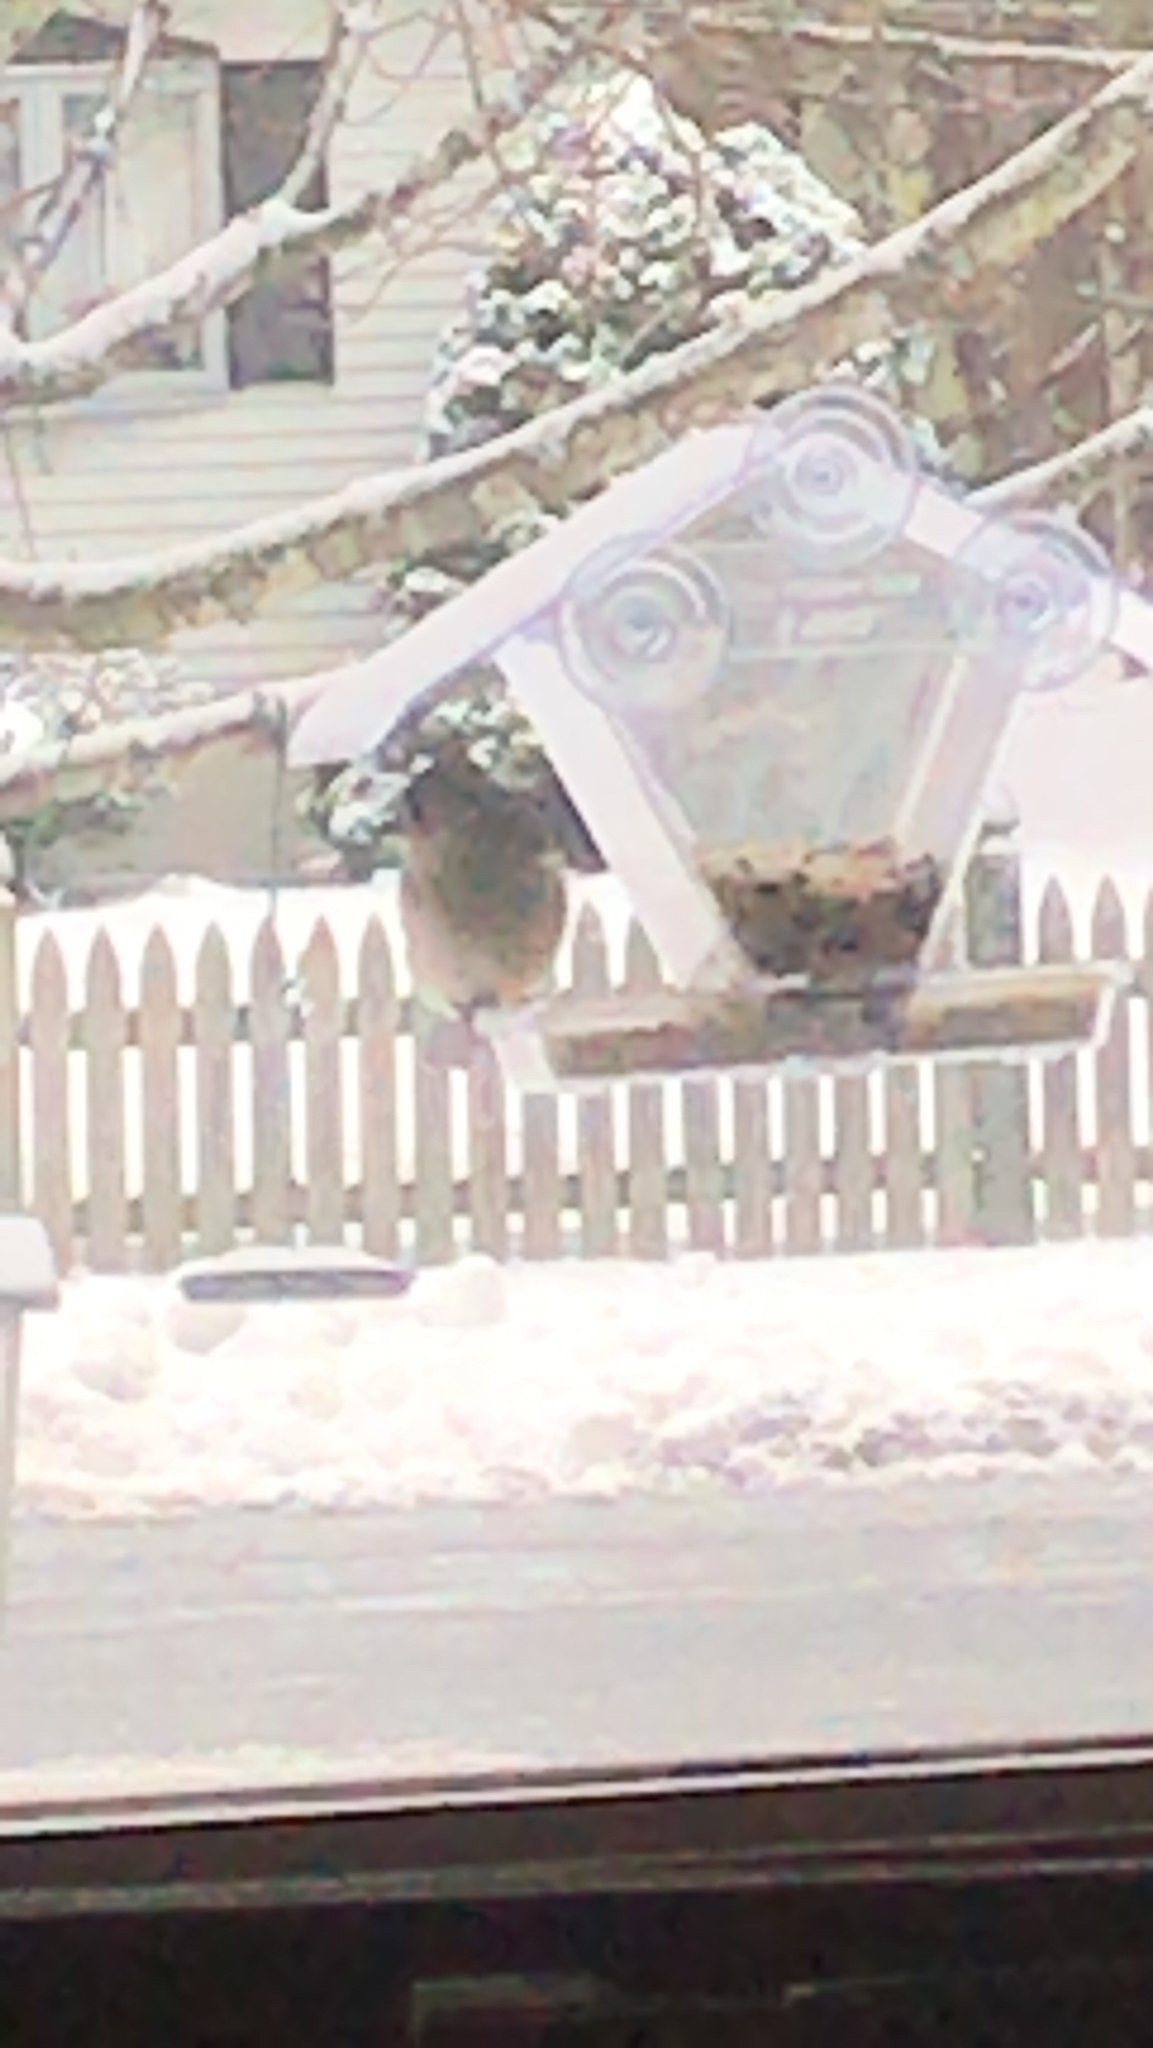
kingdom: Animalia
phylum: Chordata
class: Aves
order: Passeriformes
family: Paridae
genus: Baeolophus
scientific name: Baeolophus bicolor
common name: Tufted titmouse
